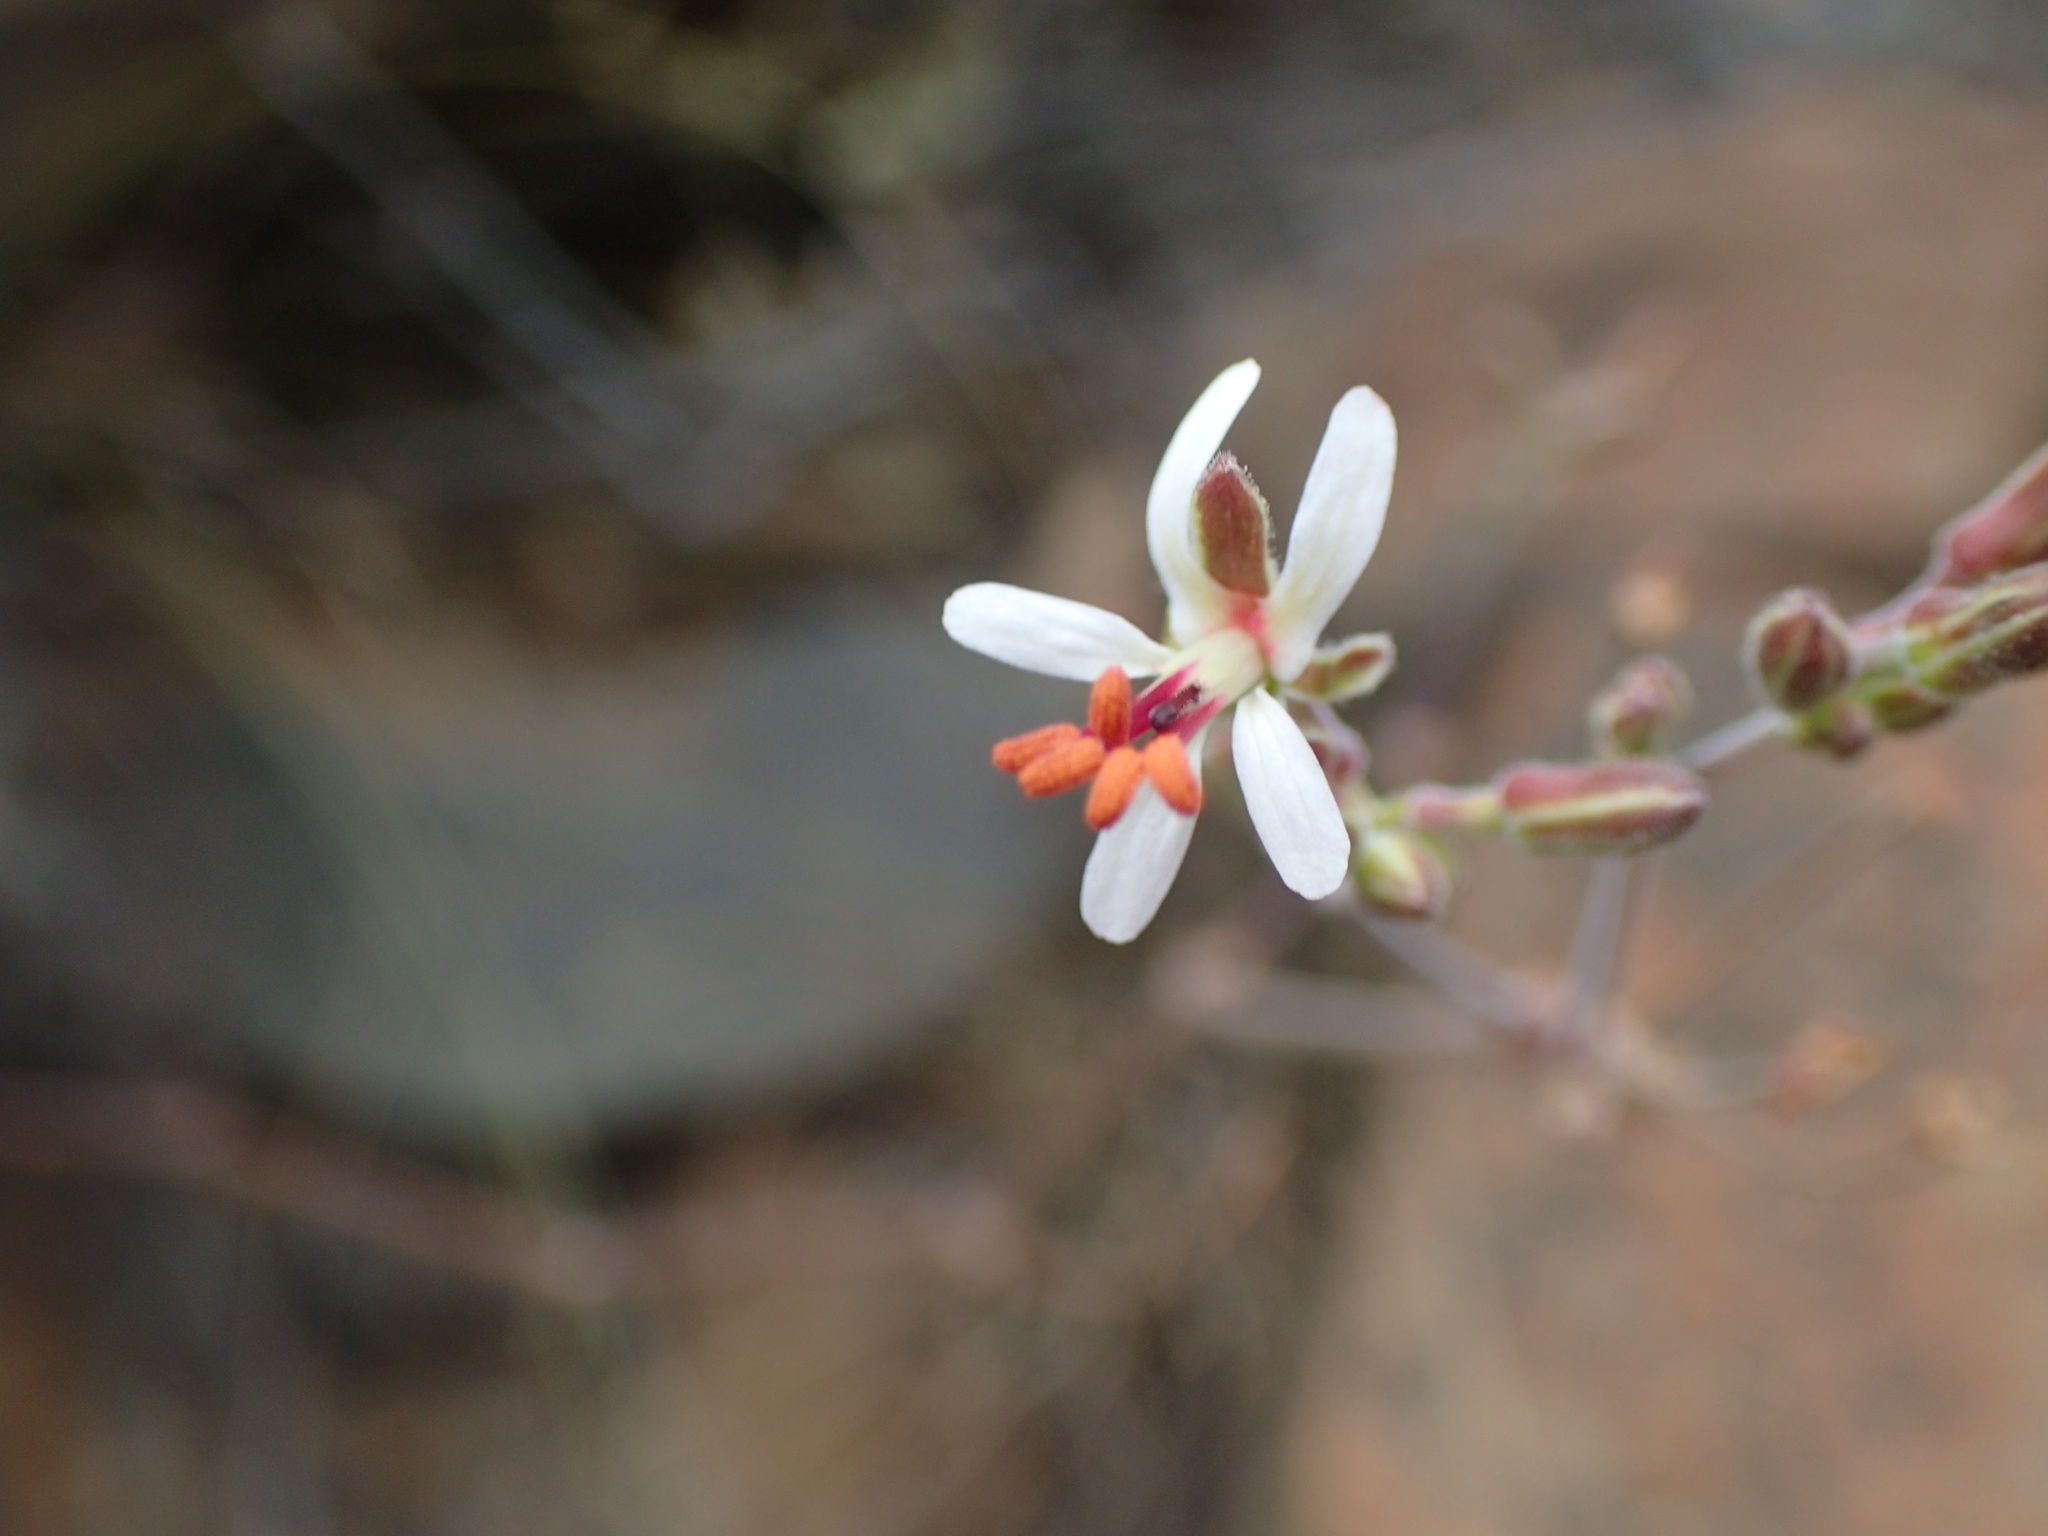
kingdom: Plantae
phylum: Tracheophyta
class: Magnoliopsida
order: Geraniales
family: Geraniaceae
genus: Pelargonium
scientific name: Pelargonium carnosum
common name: Fleshy-stalk pelargonium
